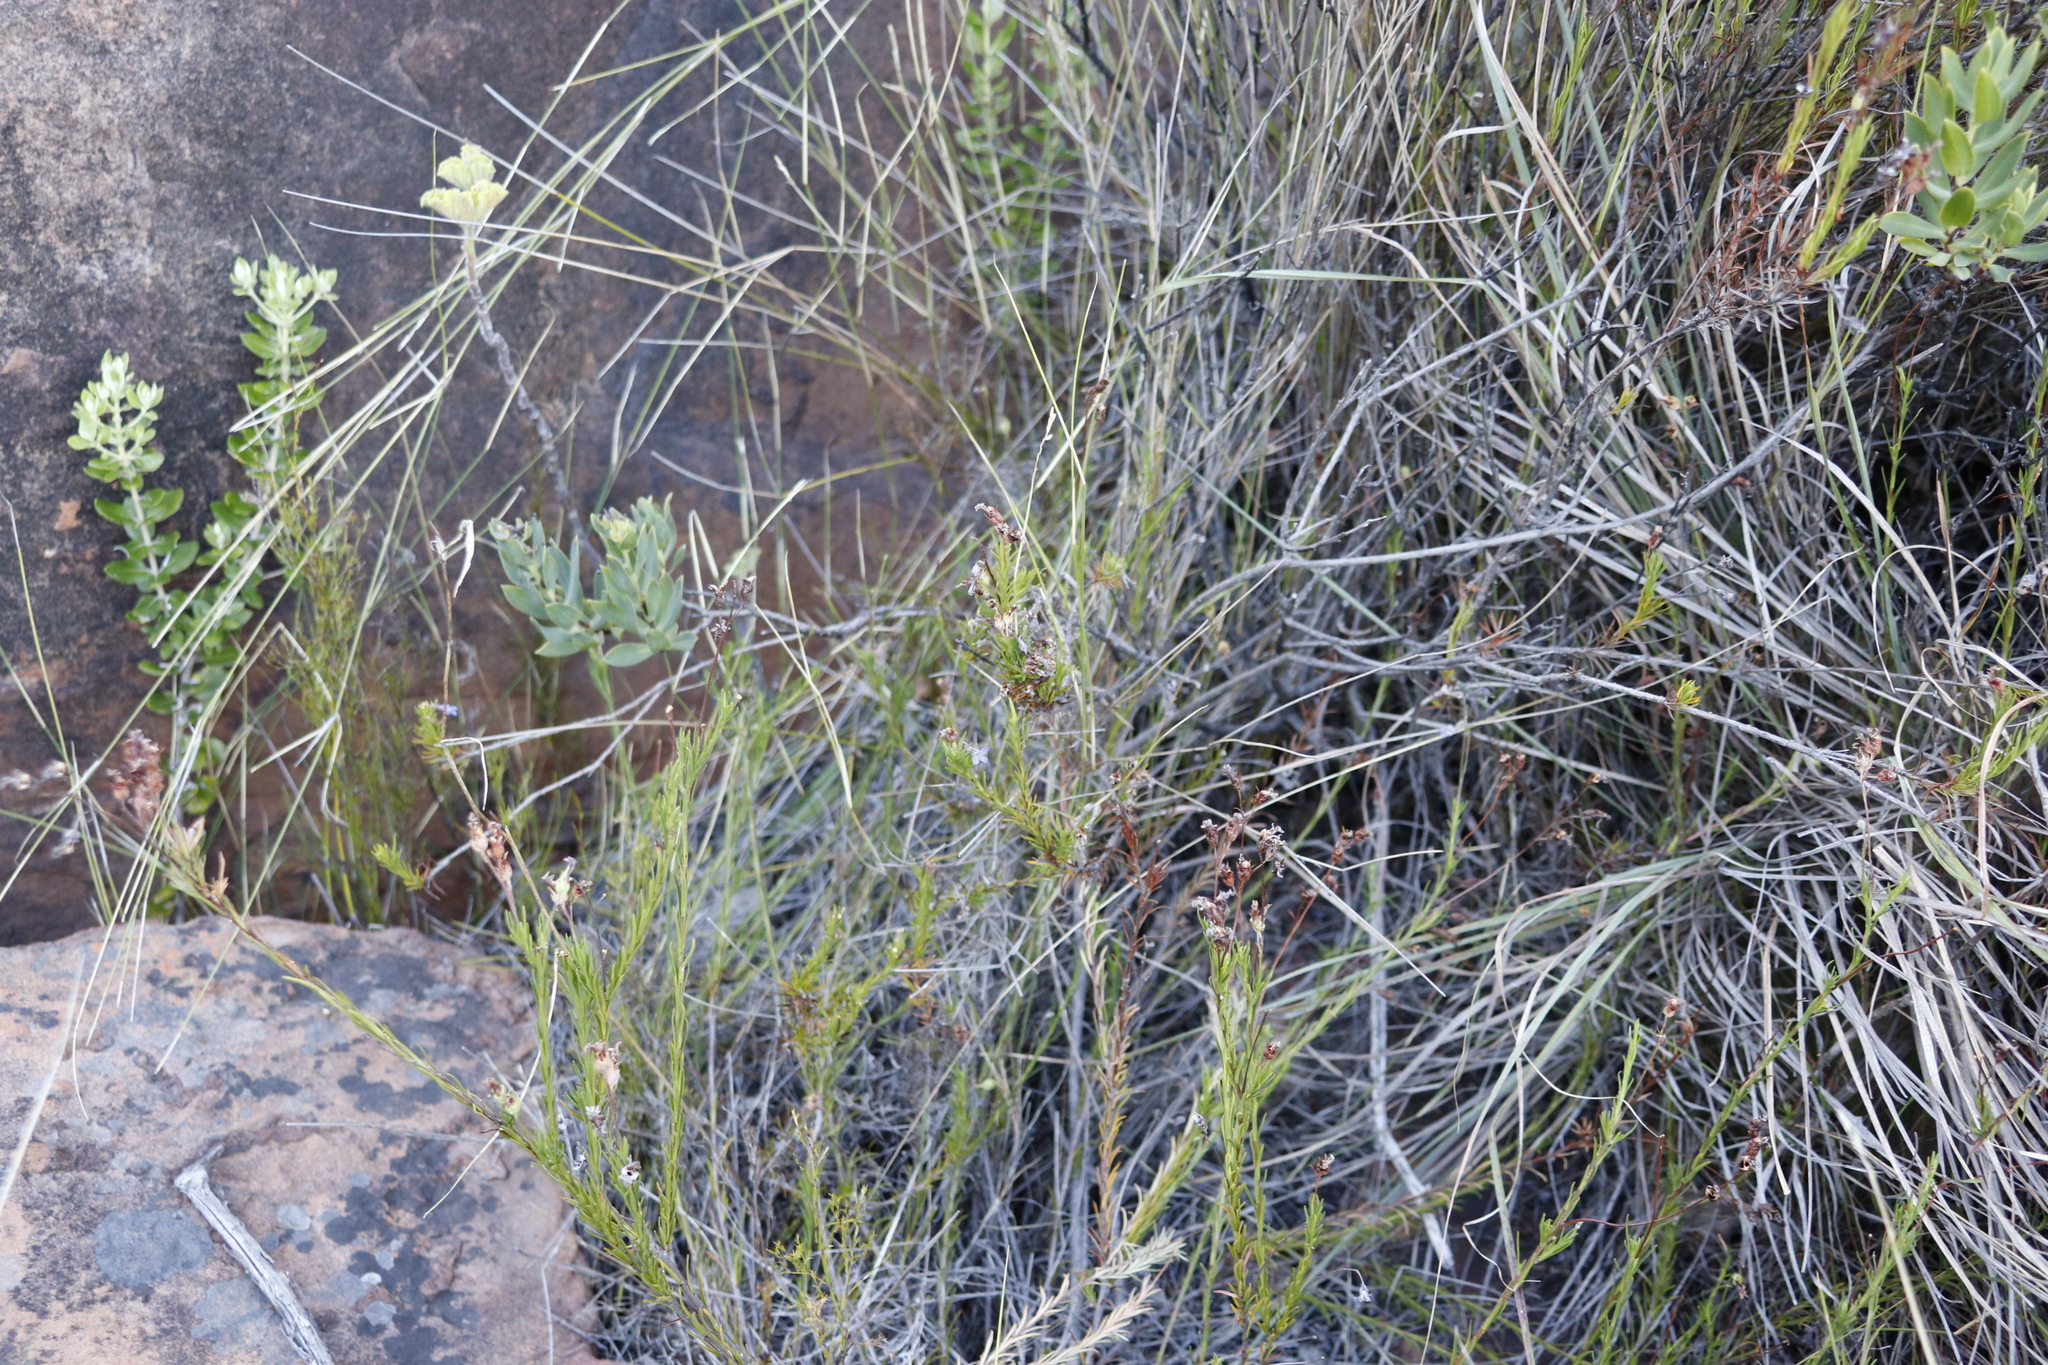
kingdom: Plantae
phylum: Tracheophyta
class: Magnoliopsida
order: Asterales
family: Campanulaceae
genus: Lobelia
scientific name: Lobelia pinifolia
